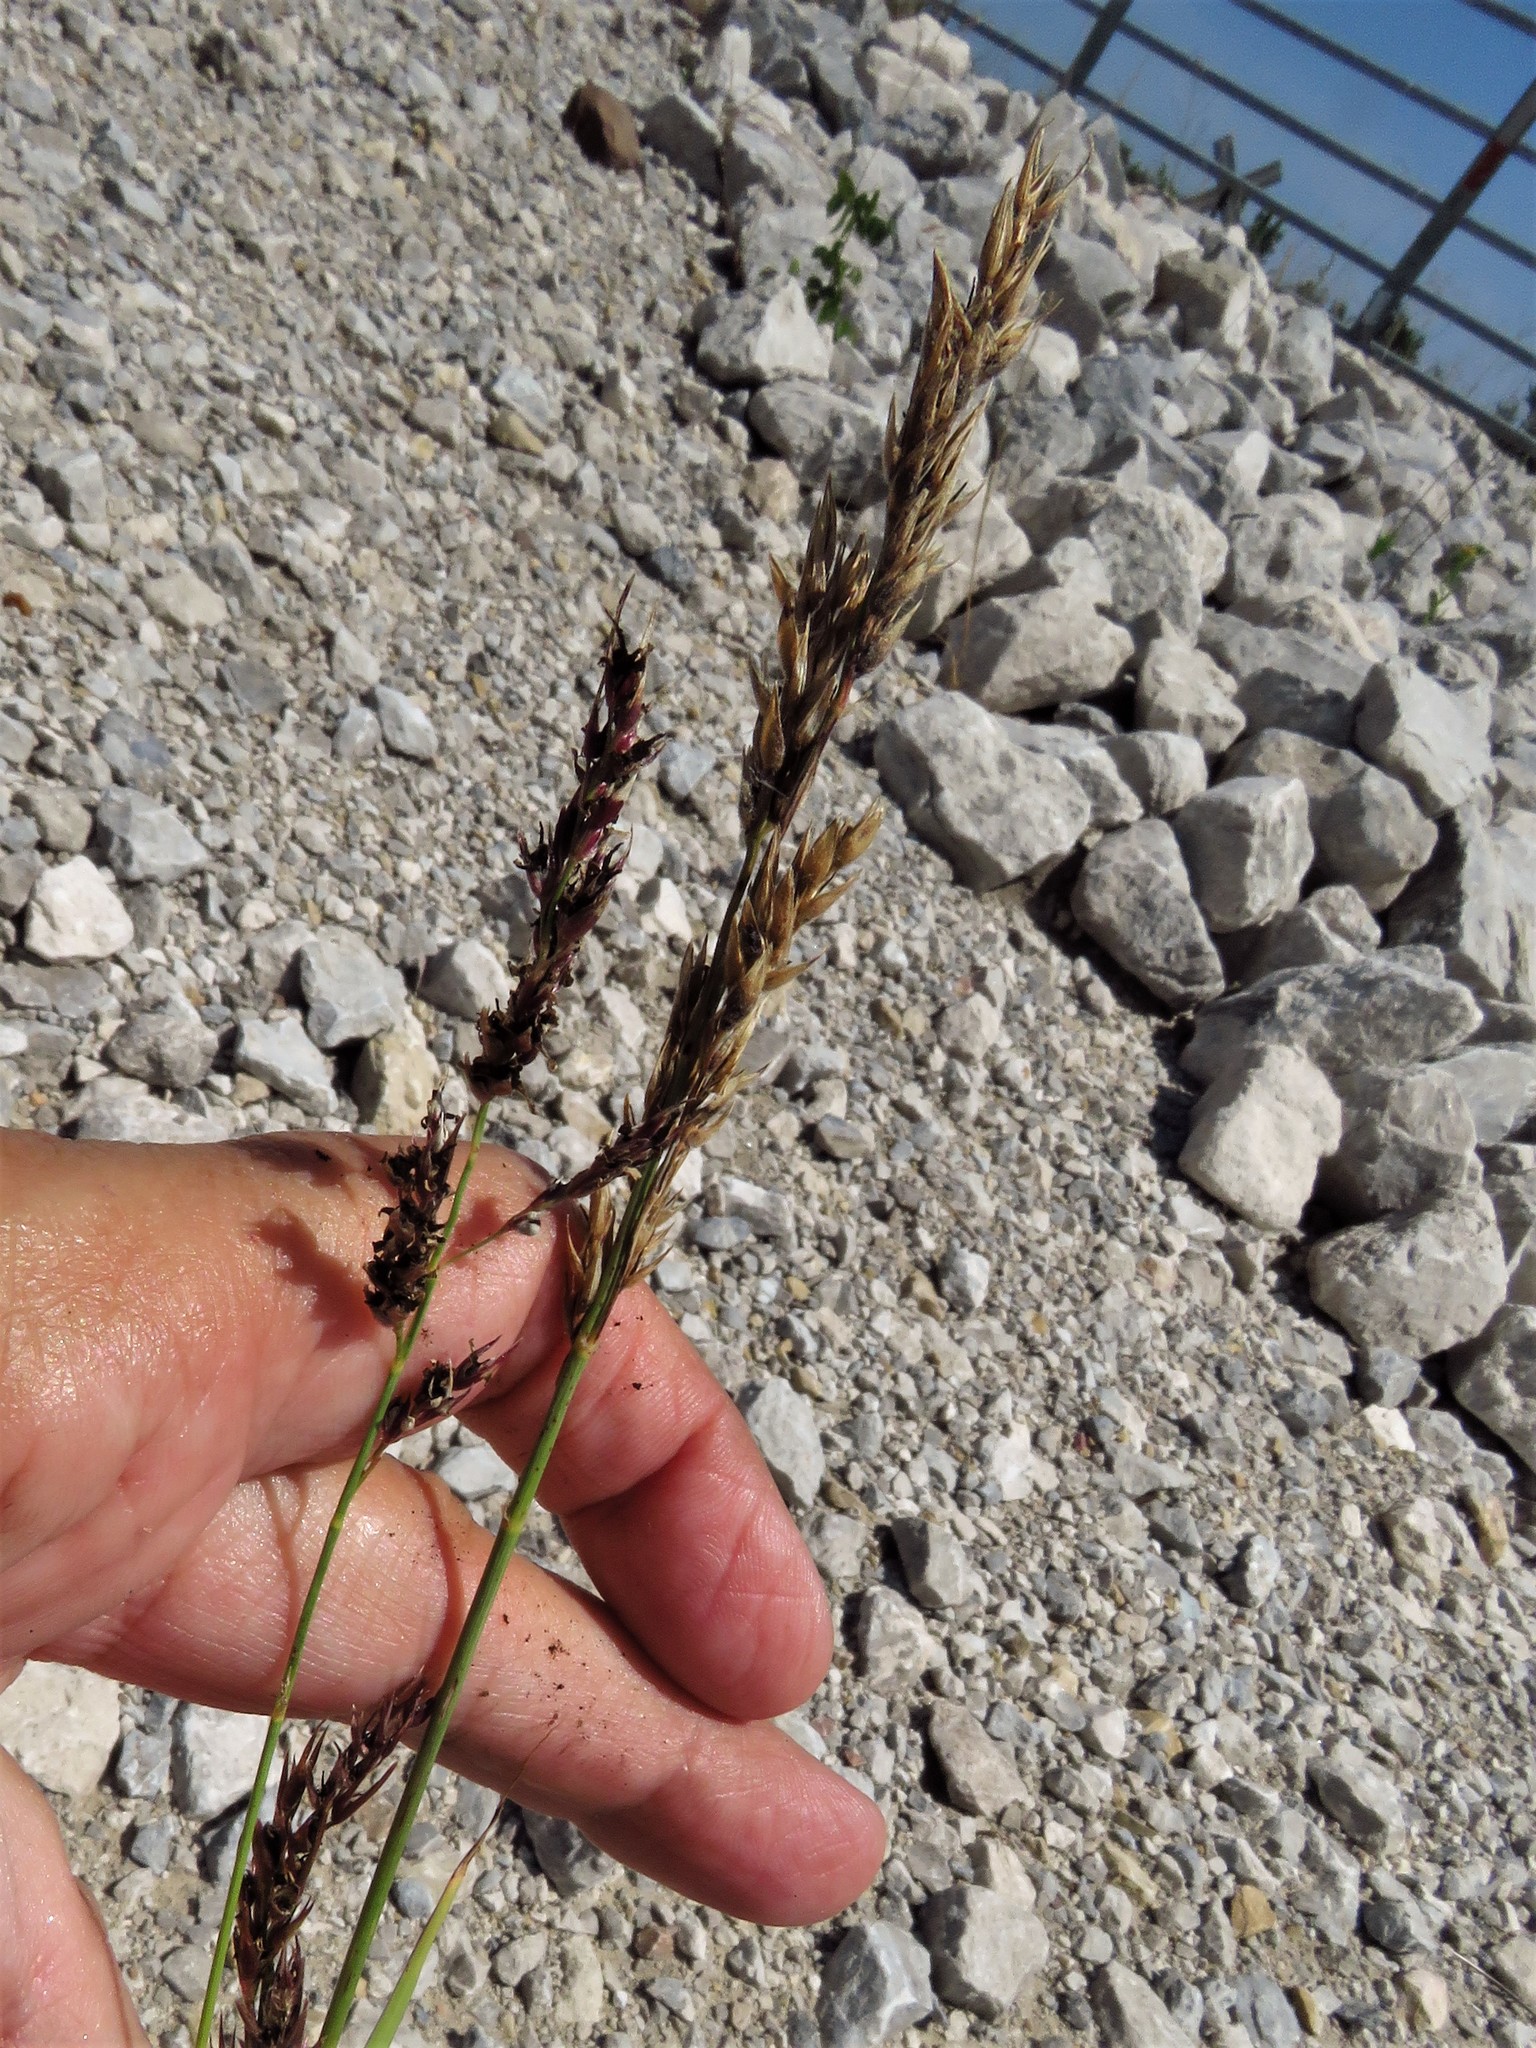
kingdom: Plantae
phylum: Tracheophyta
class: Liliopsida
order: Poales
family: Poaceae
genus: Sorghum
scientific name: Sorghum halepense
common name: Johnson-grass
